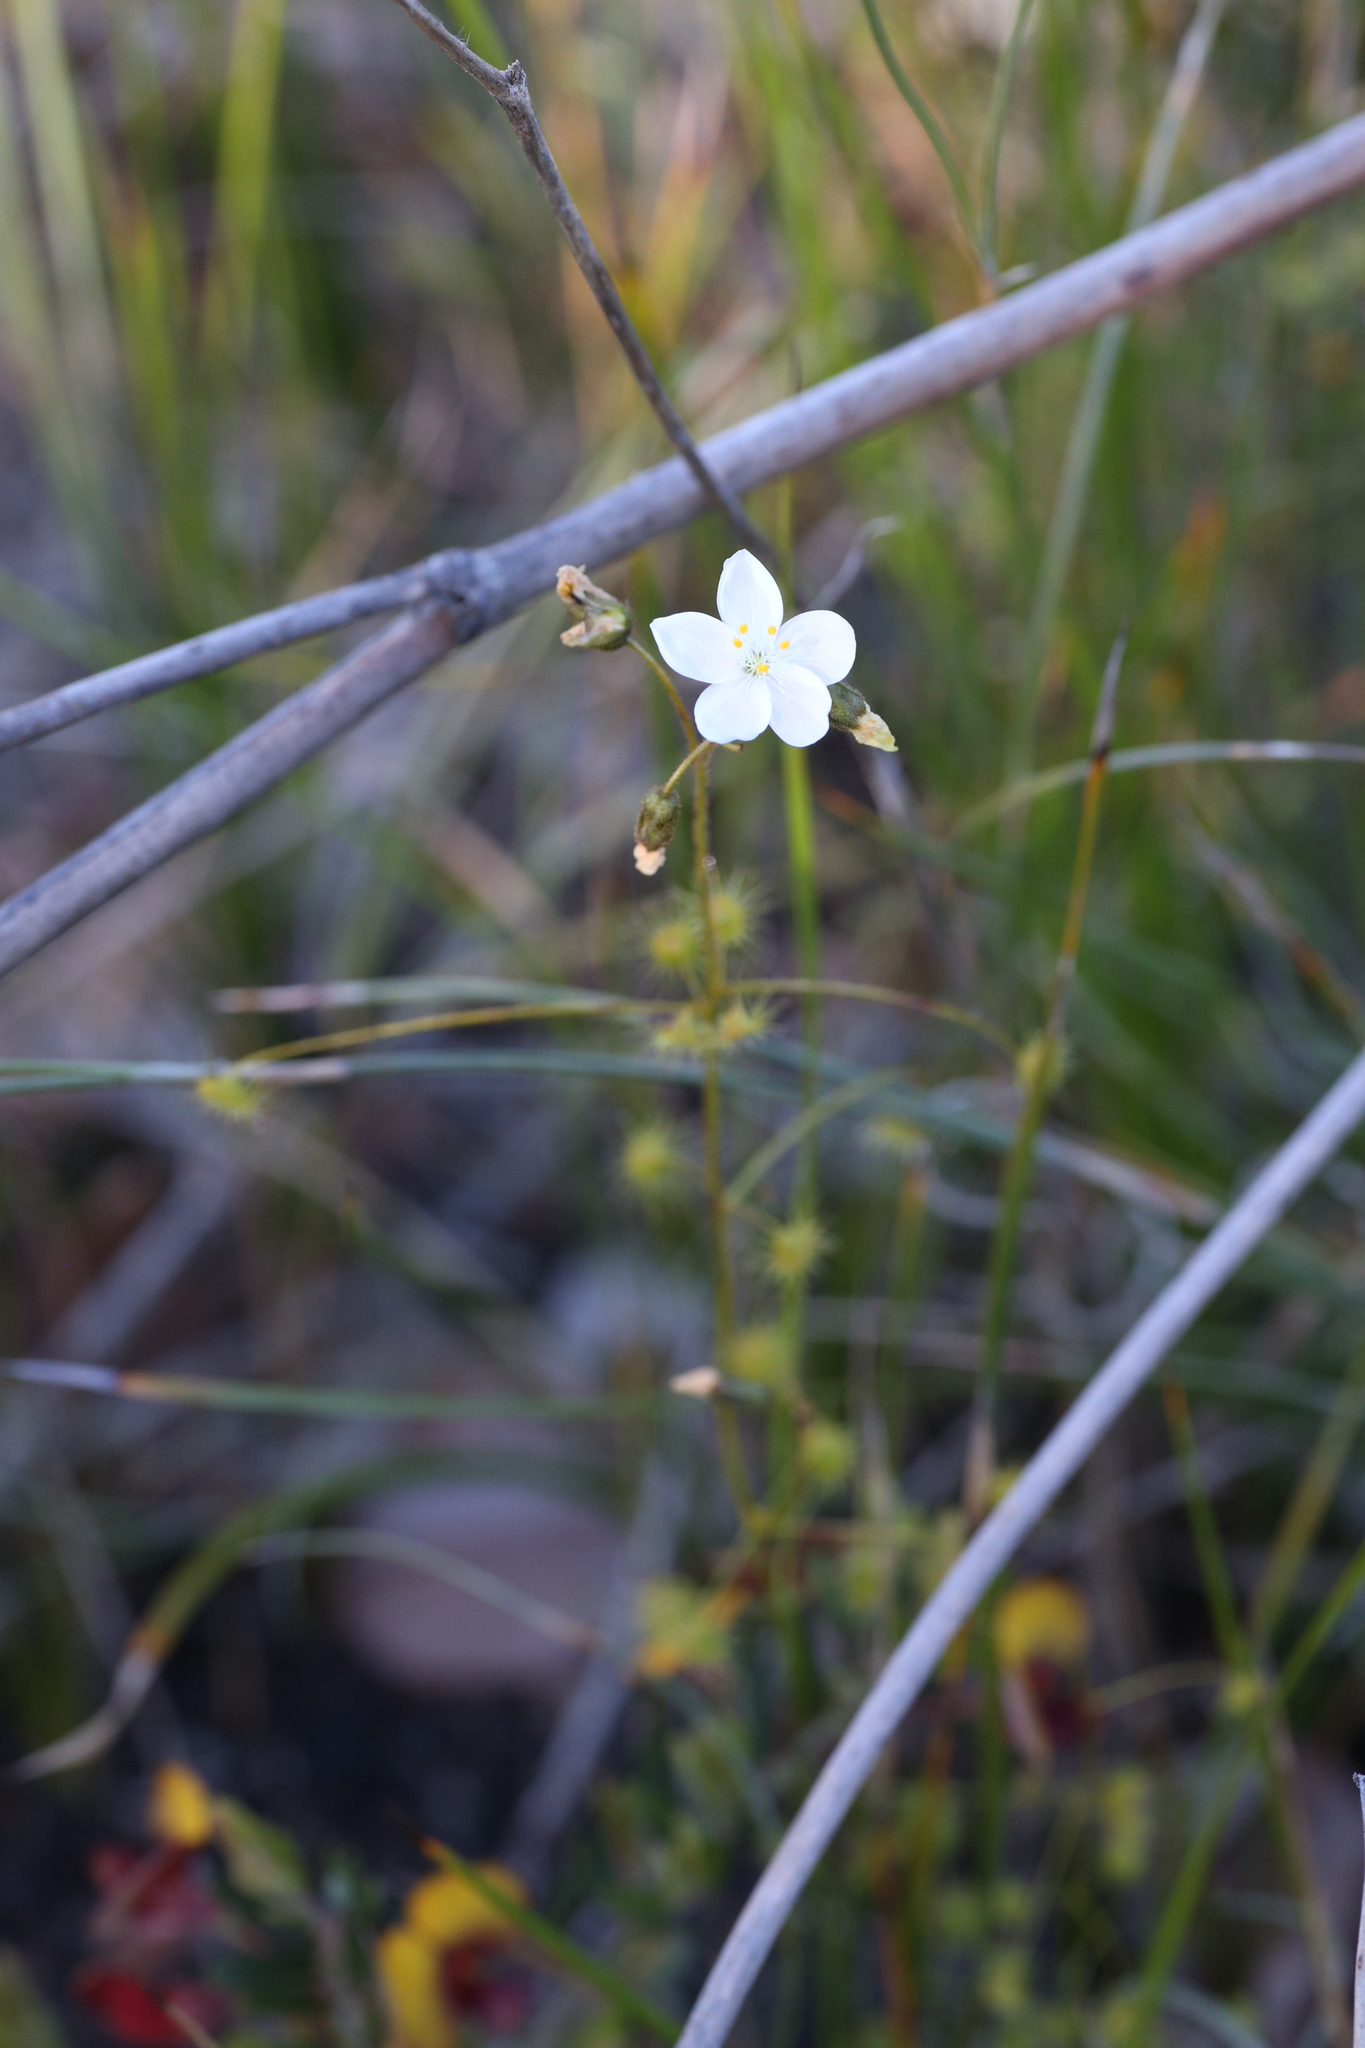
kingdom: Plantae
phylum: Tracheophyta
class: Magnoliopsida
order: Caryophyllales
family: Droseraceae
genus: Drosera
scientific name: Drosera macrantha
